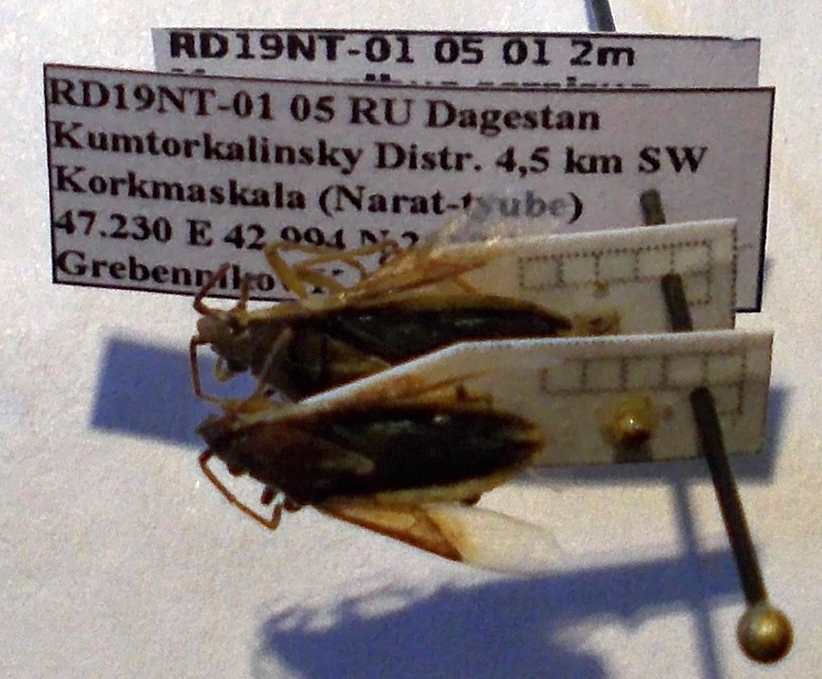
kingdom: Animalia
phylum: Arthropoda
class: Insecta
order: Hemiptera
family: Rhopalidae
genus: Maccevethus
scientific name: Maccevethus corsicus
